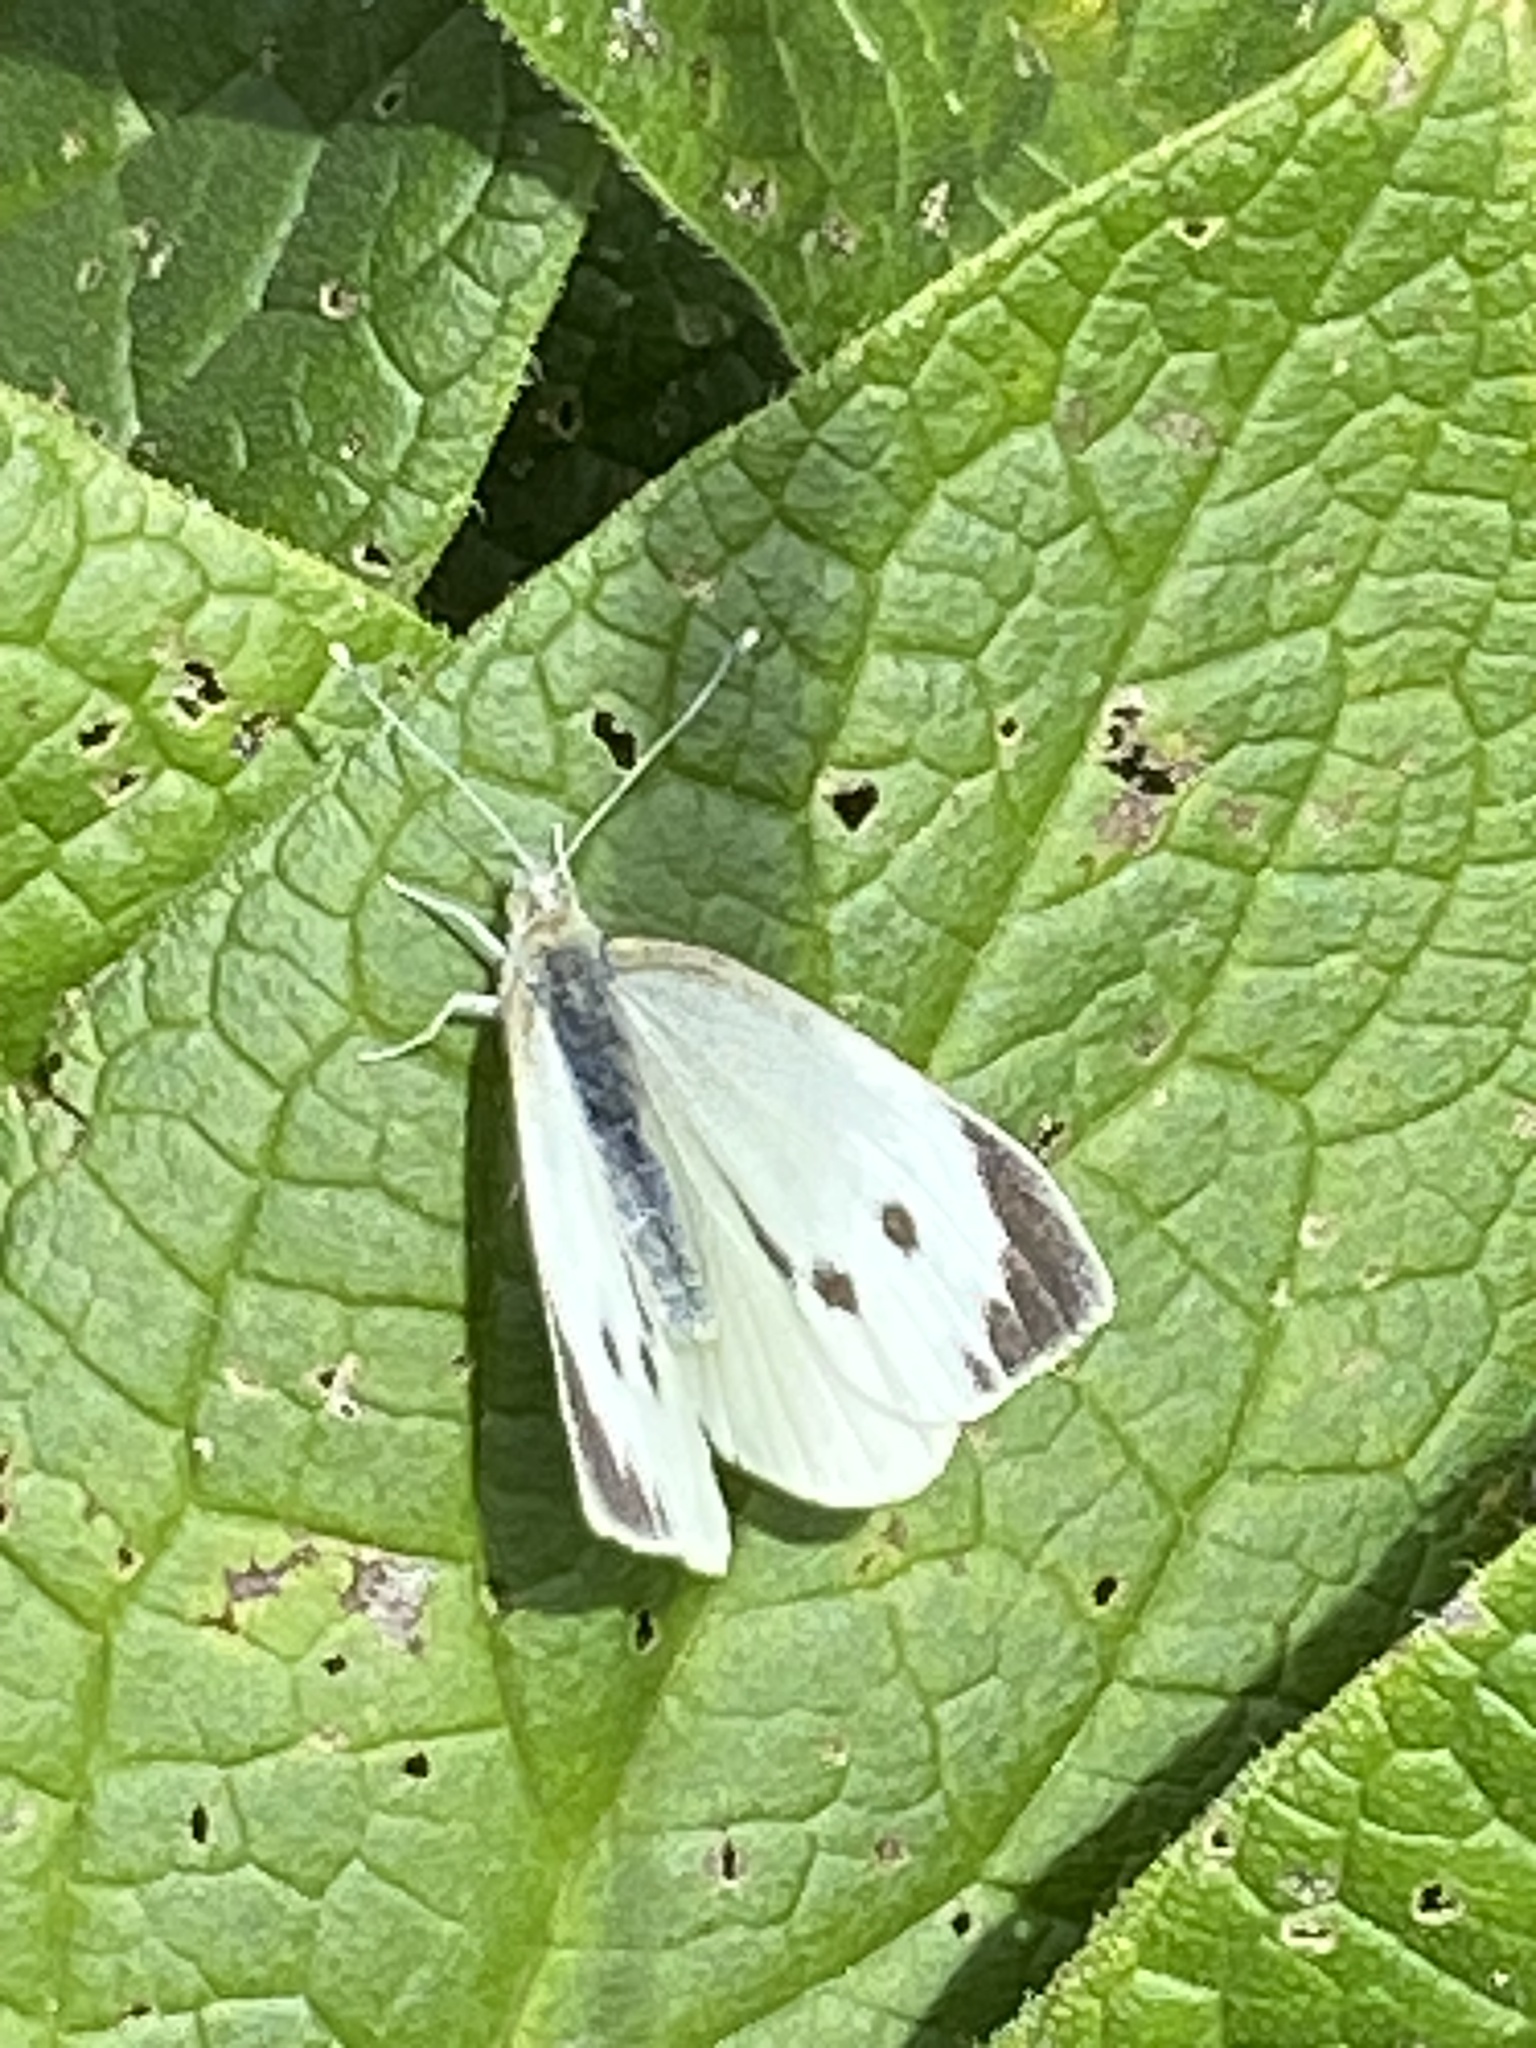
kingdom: Animalia
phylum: Arthropoda
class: Insecta
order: Lepidoptera
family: Pieridae
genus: Pieris
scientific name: Pieris brassicae
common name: Large white
